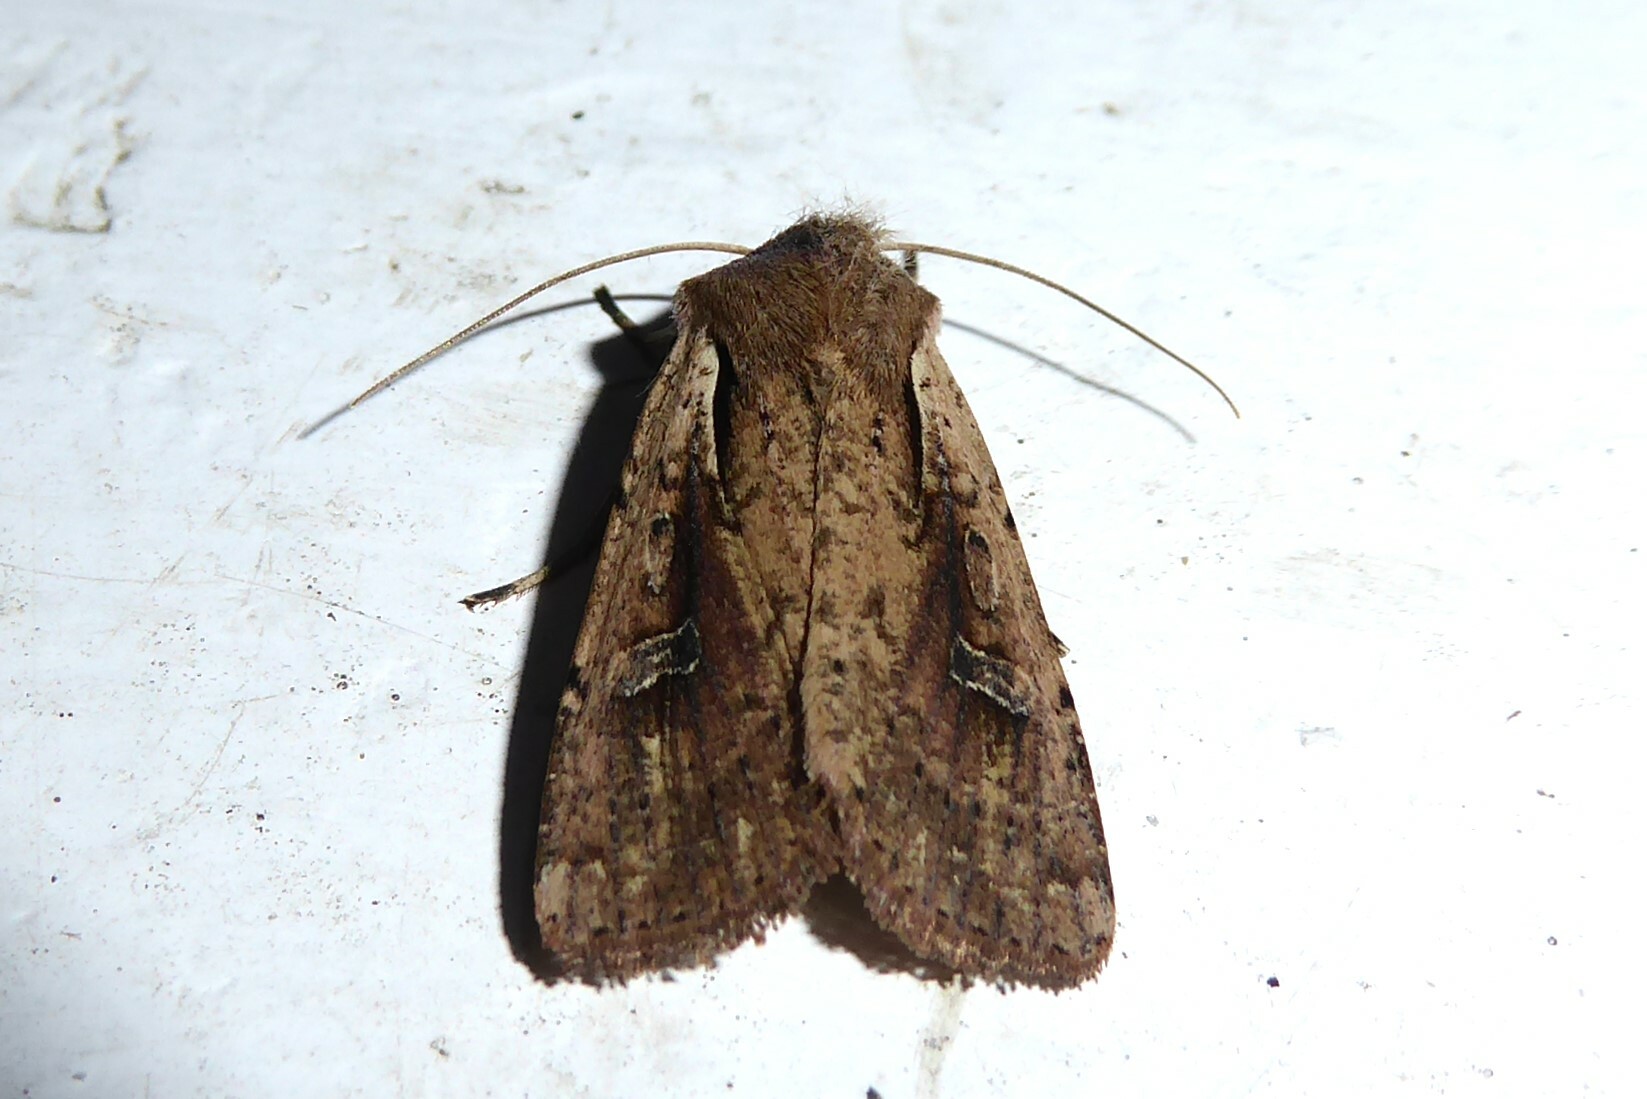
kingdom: Animalia
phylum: Arthropoda
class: Insecta
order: Lepidoptera
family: Noctuidae
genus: Ichneutica
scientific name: Ichneutica atristriga
